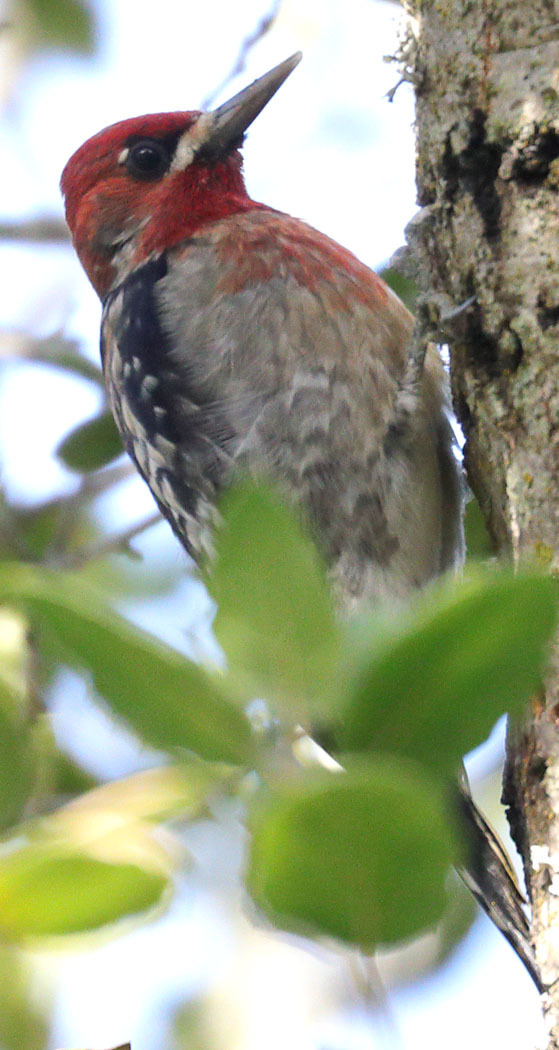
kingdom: Animalia
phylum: Chordata
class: Aves
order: Piciformes
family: Picidae
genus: Sphyrapicus
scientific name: Sphyrapicus ruber
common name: Red-breasted sapsucker
